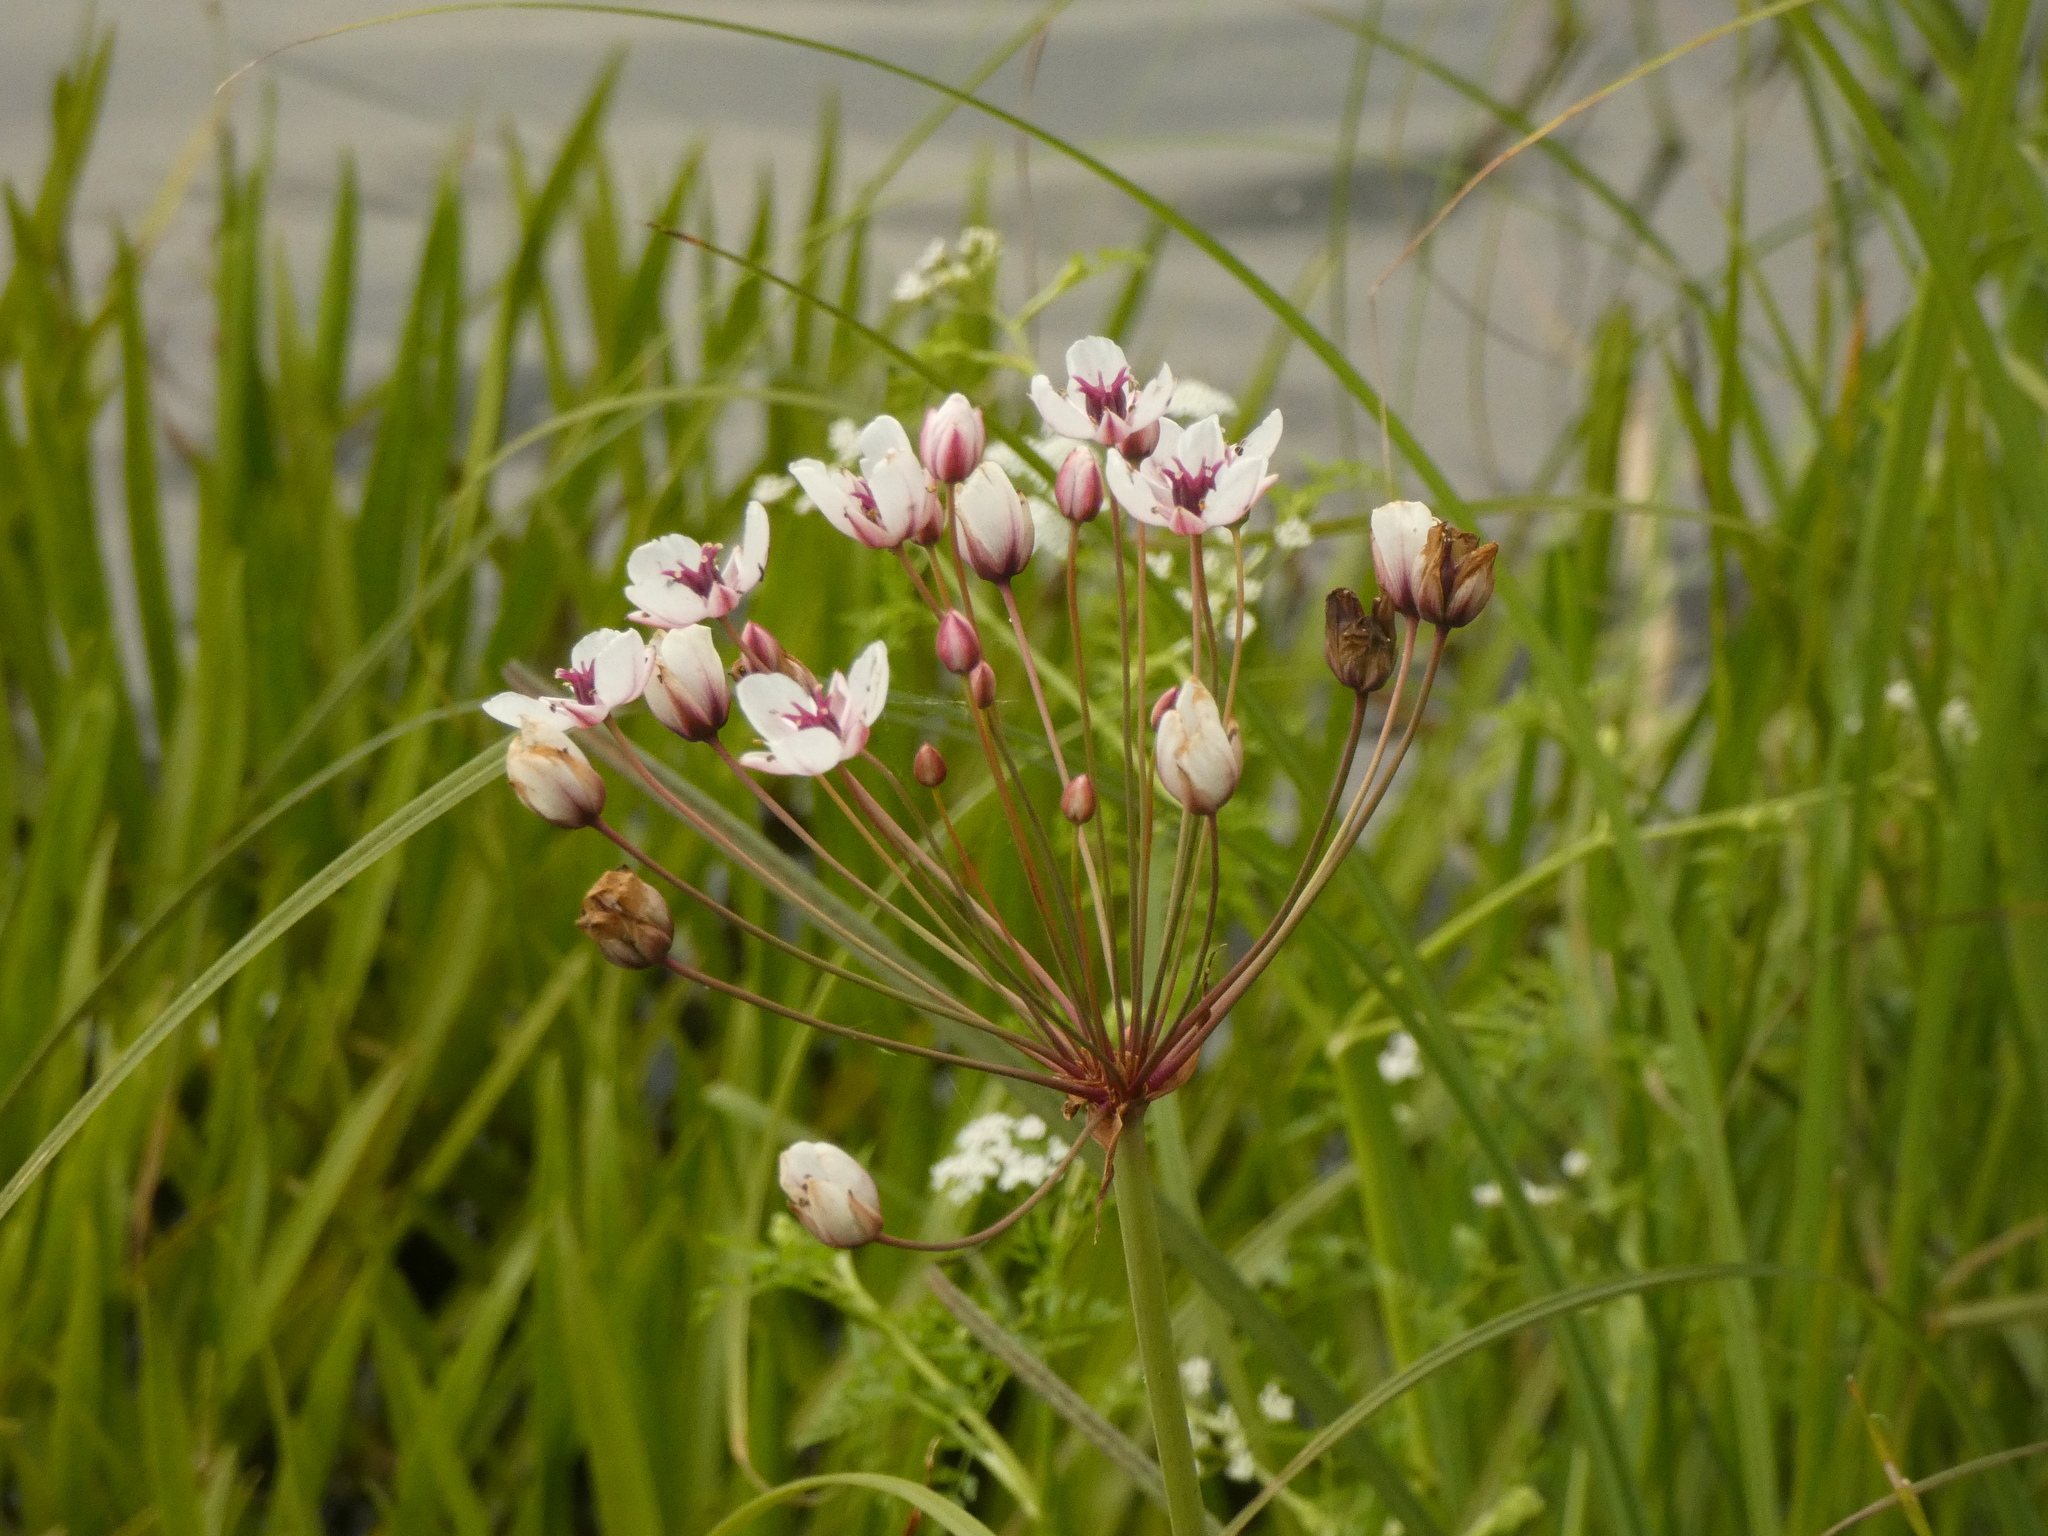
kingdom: Plantae
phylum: Tracheophyta
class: Liliopsida
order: Alismatales
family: Butomaceae
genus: Butomus
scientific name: Butomus umbellatus
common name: Flowering-rush
